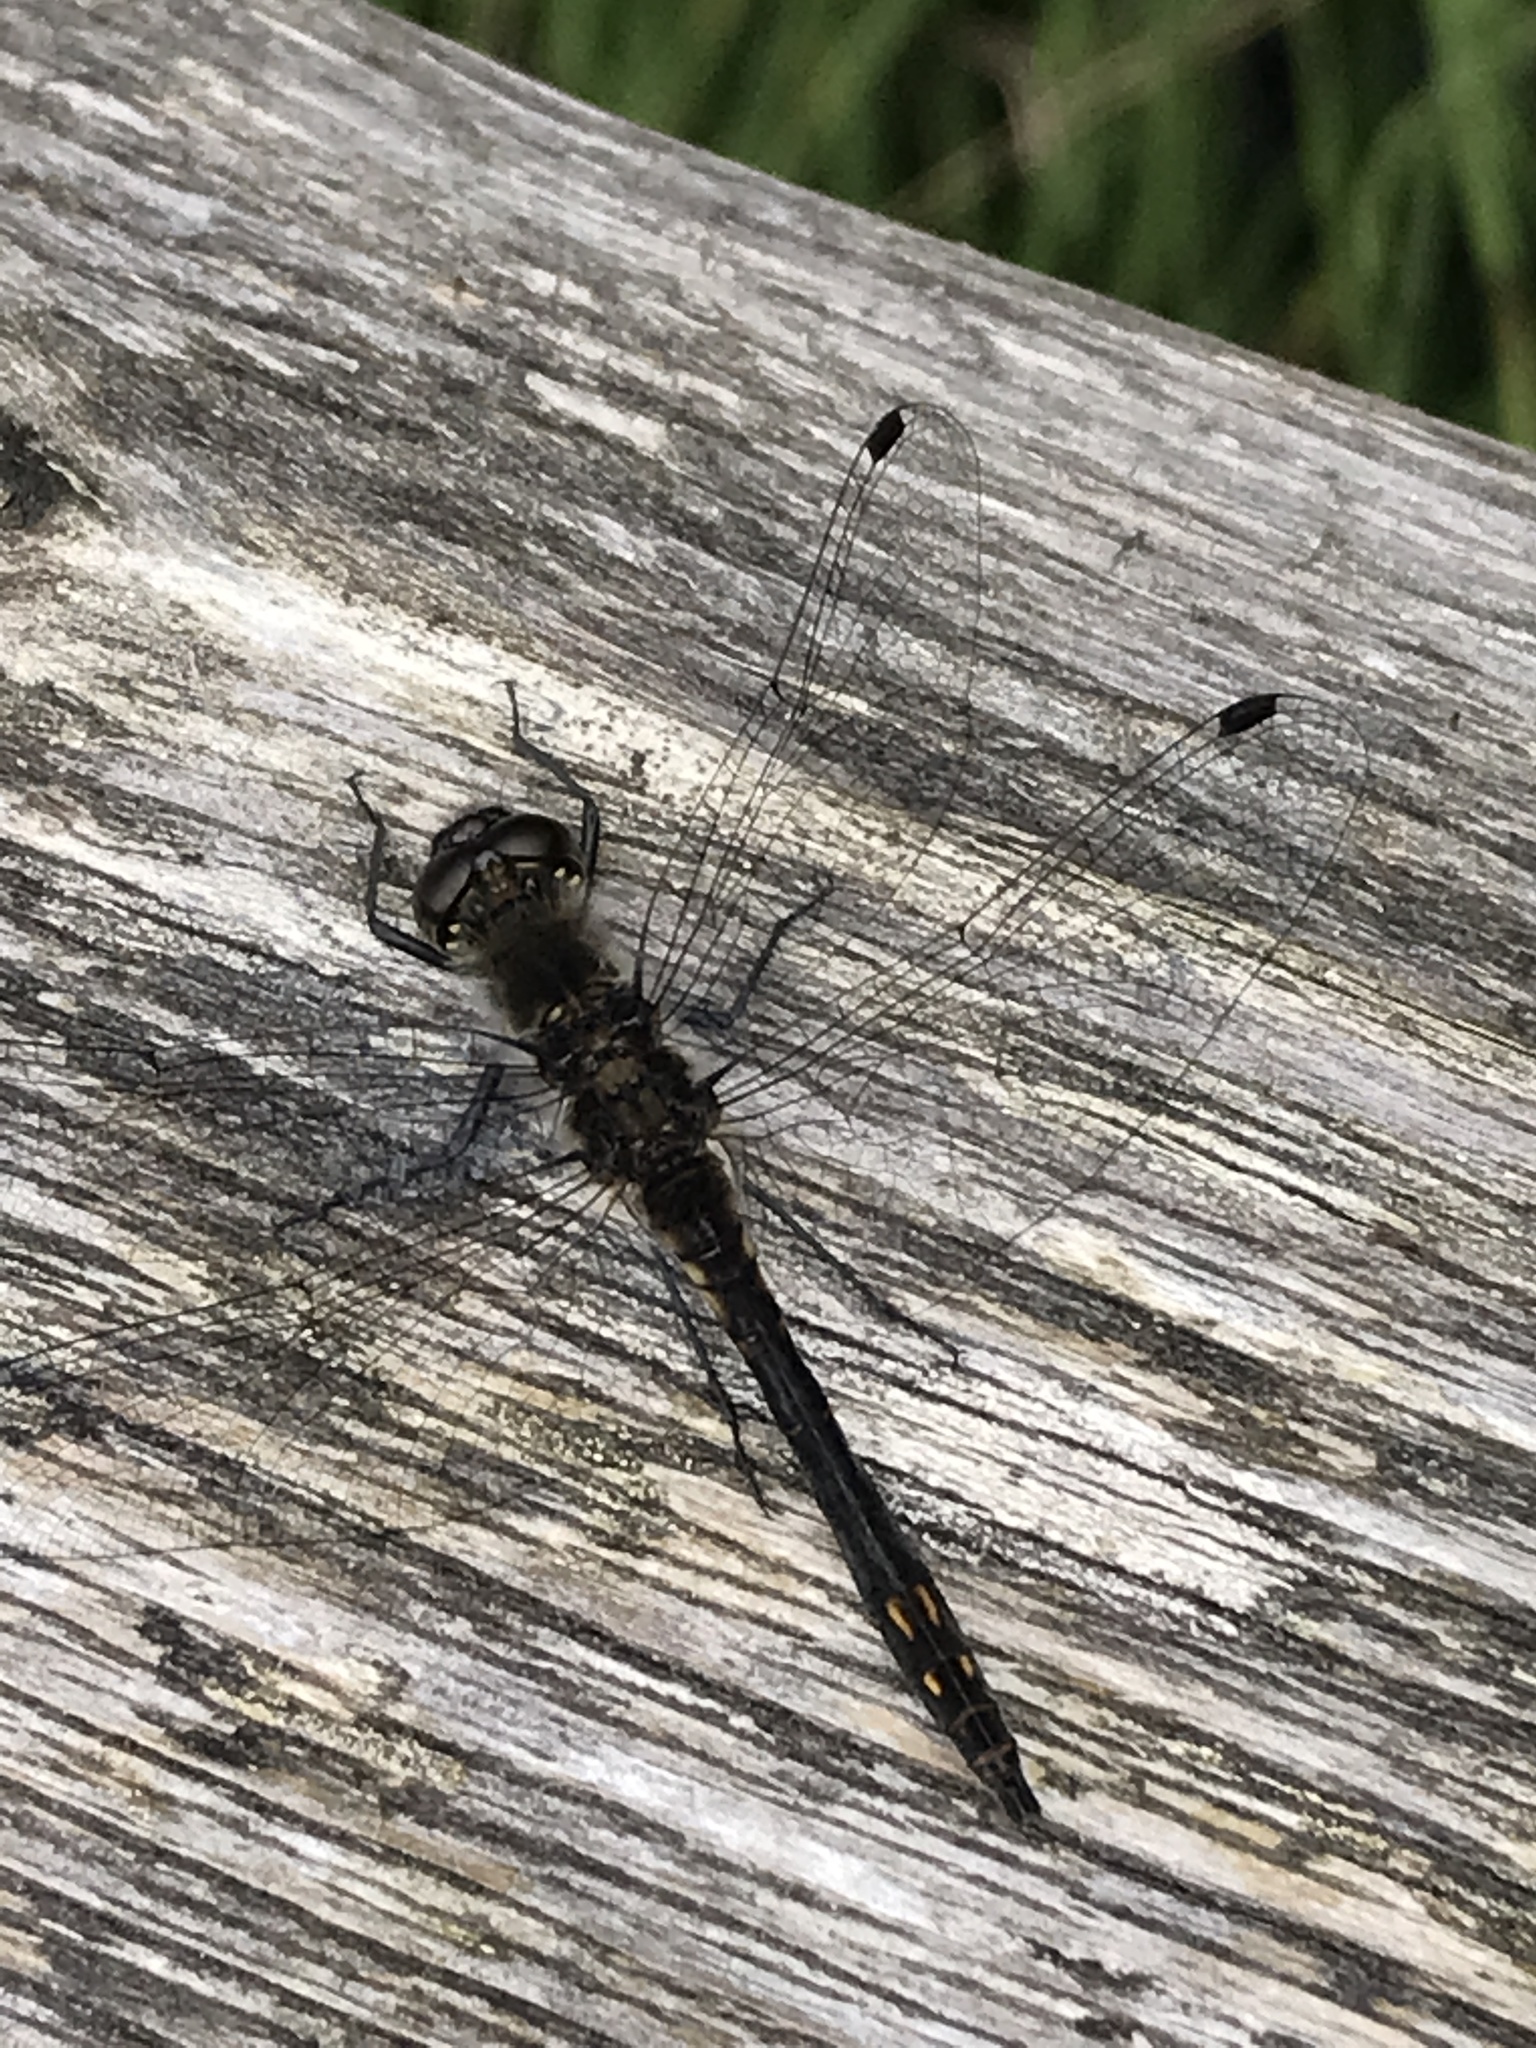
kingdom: Animalia
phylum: Arthropoda
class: Insecta
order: Odonata
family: Libellulidae
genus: Sympetrum
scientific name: Sympetrum danae
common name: Black darter
